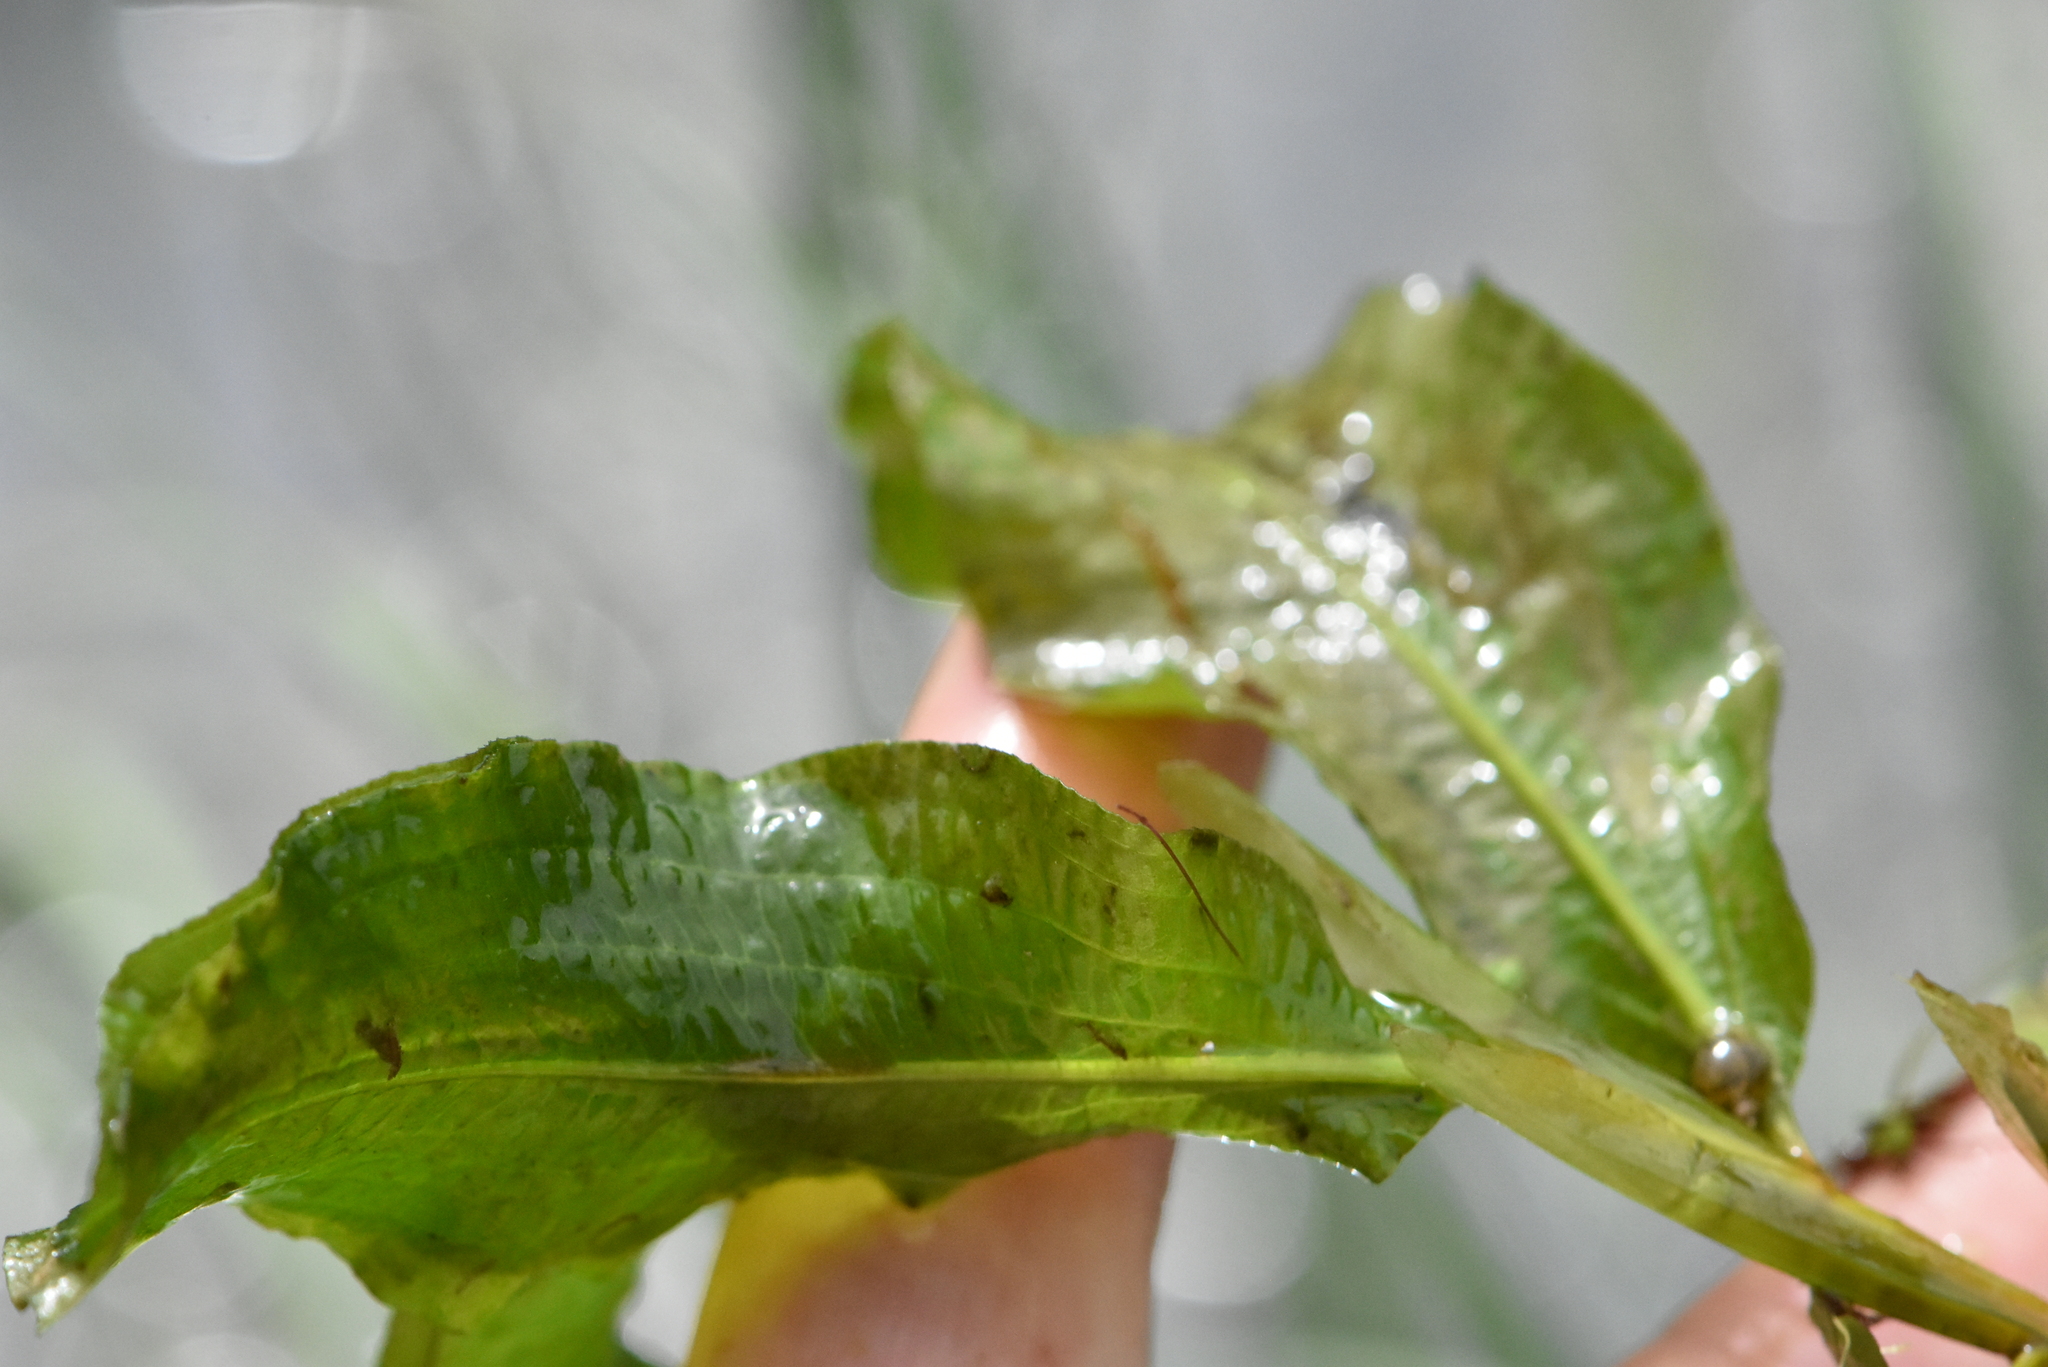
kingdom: Plantae
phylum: Tracheophyta
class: Liliopsida
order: Alismatales
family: Potamogetonaceae
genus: Potamogeton
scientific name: Potamogeton lucens
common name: Shining pondweed
